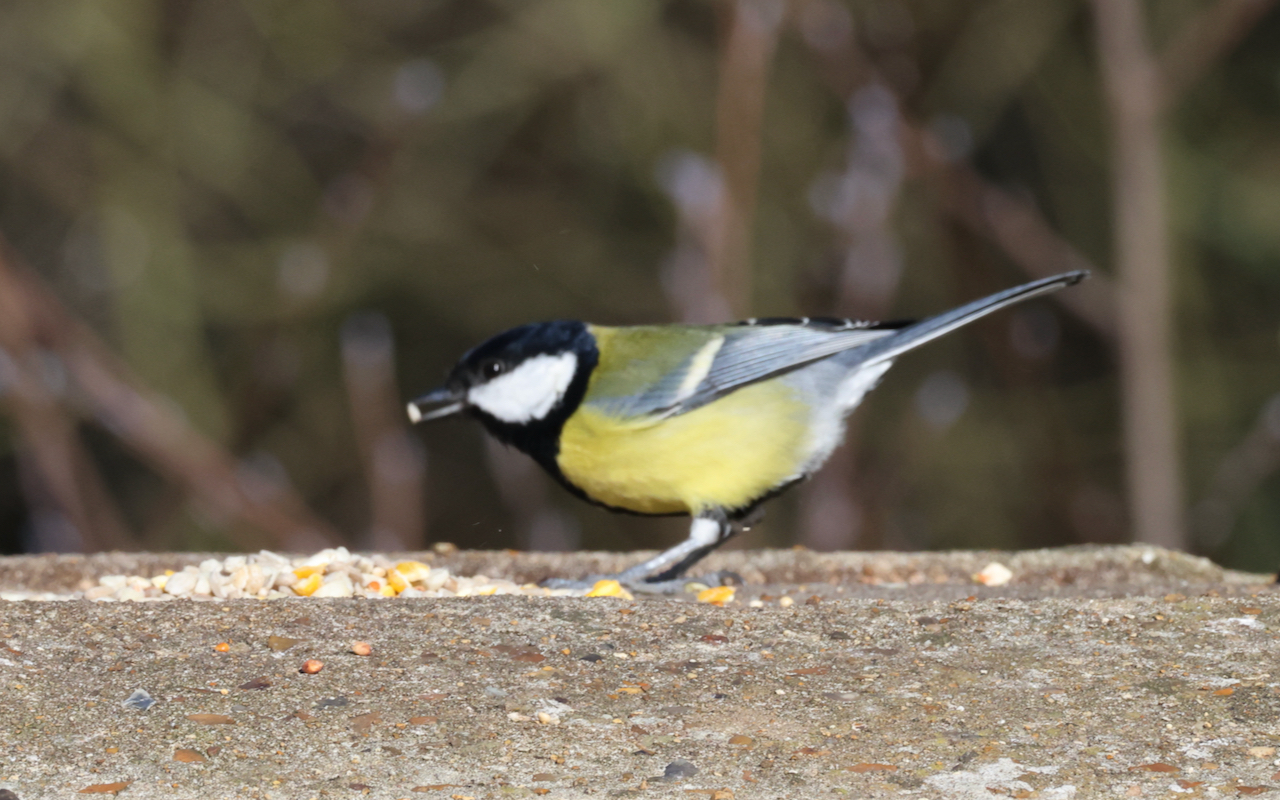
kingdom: Animalia
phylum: Chordata
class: Aves
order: Passeriformes
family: Paridae
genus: Parus
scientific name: Parus major
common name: Great tit
